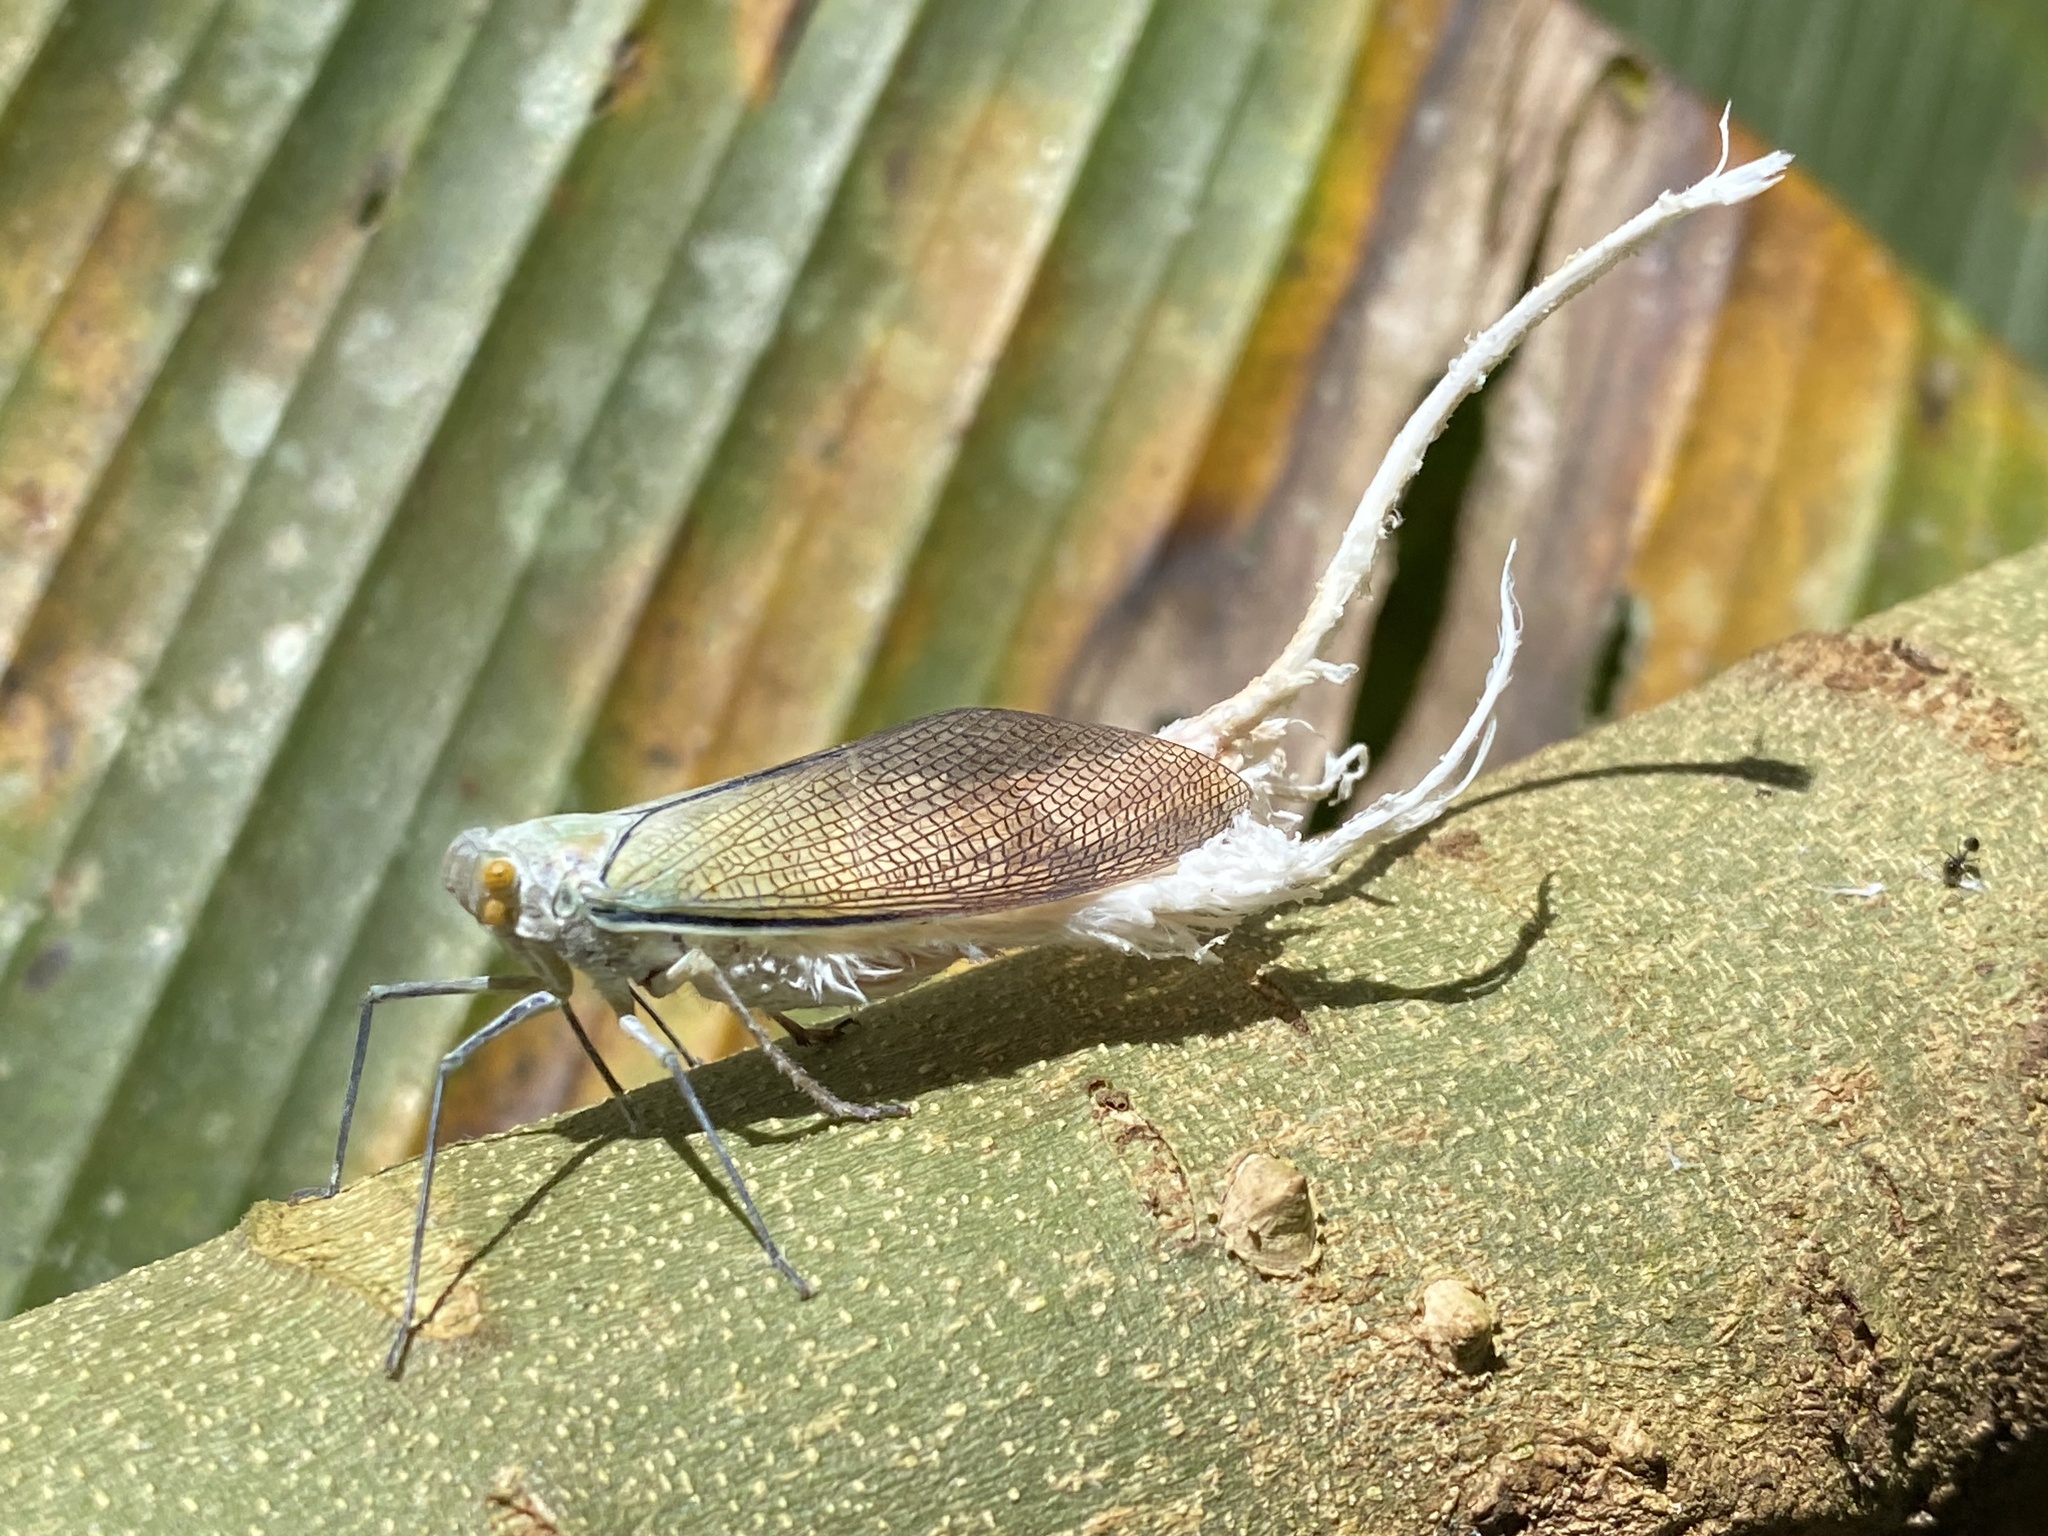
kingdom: Animalia
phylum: Arthropoda
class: Insecta
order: Hemiptera
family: Fulgoridae
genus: Pterodictya
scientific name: Pterodictya reticularis
